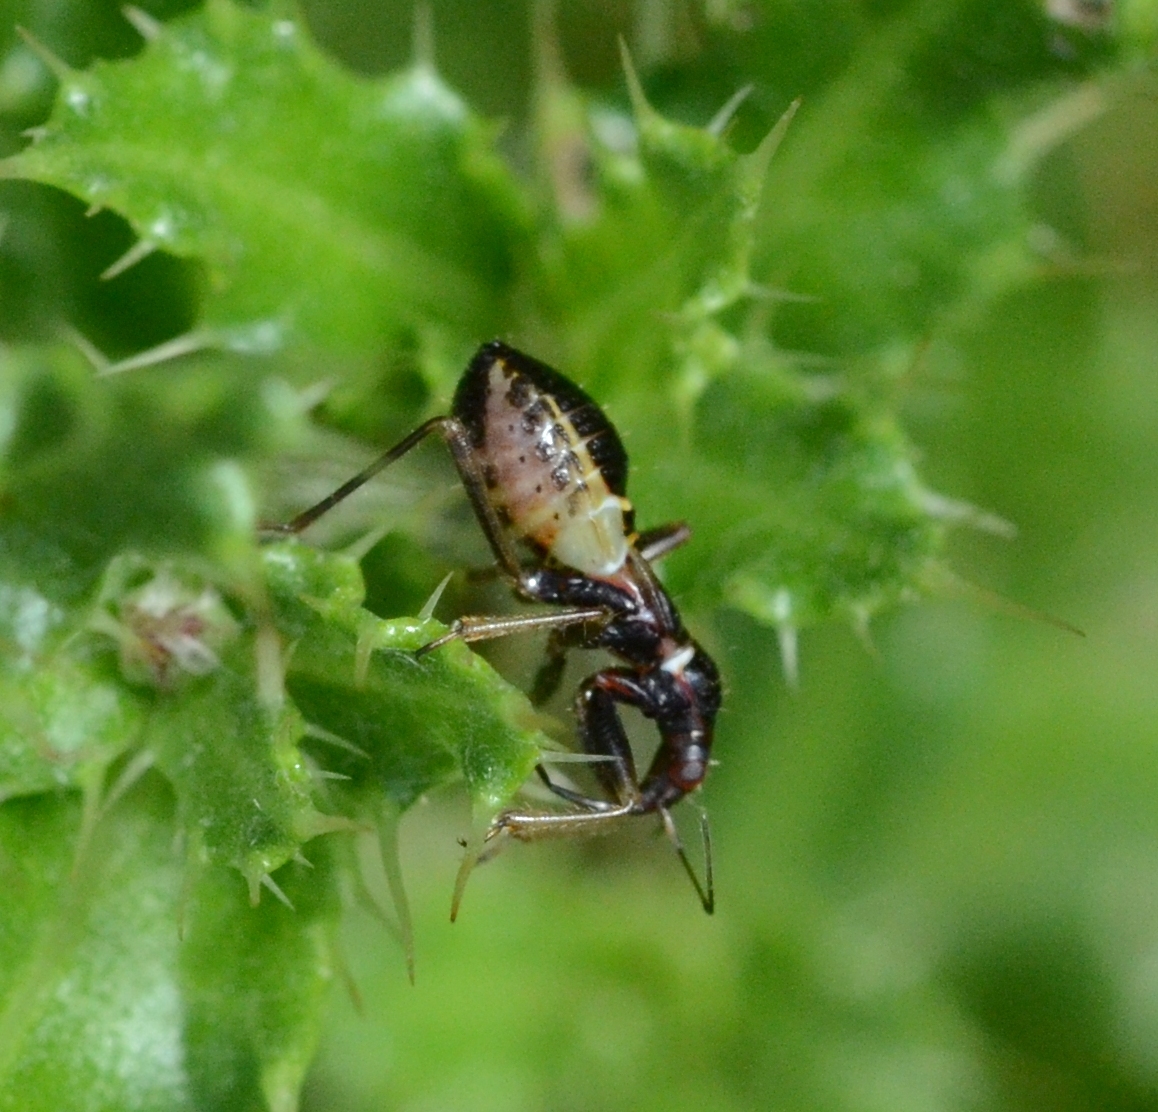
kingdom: Animalia
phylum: Arthropoda
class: Insecta
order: Hemiptera
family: Nabidae
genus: Himacerus
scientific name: Himacerus mirmicoides
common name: Ant damsel bug
